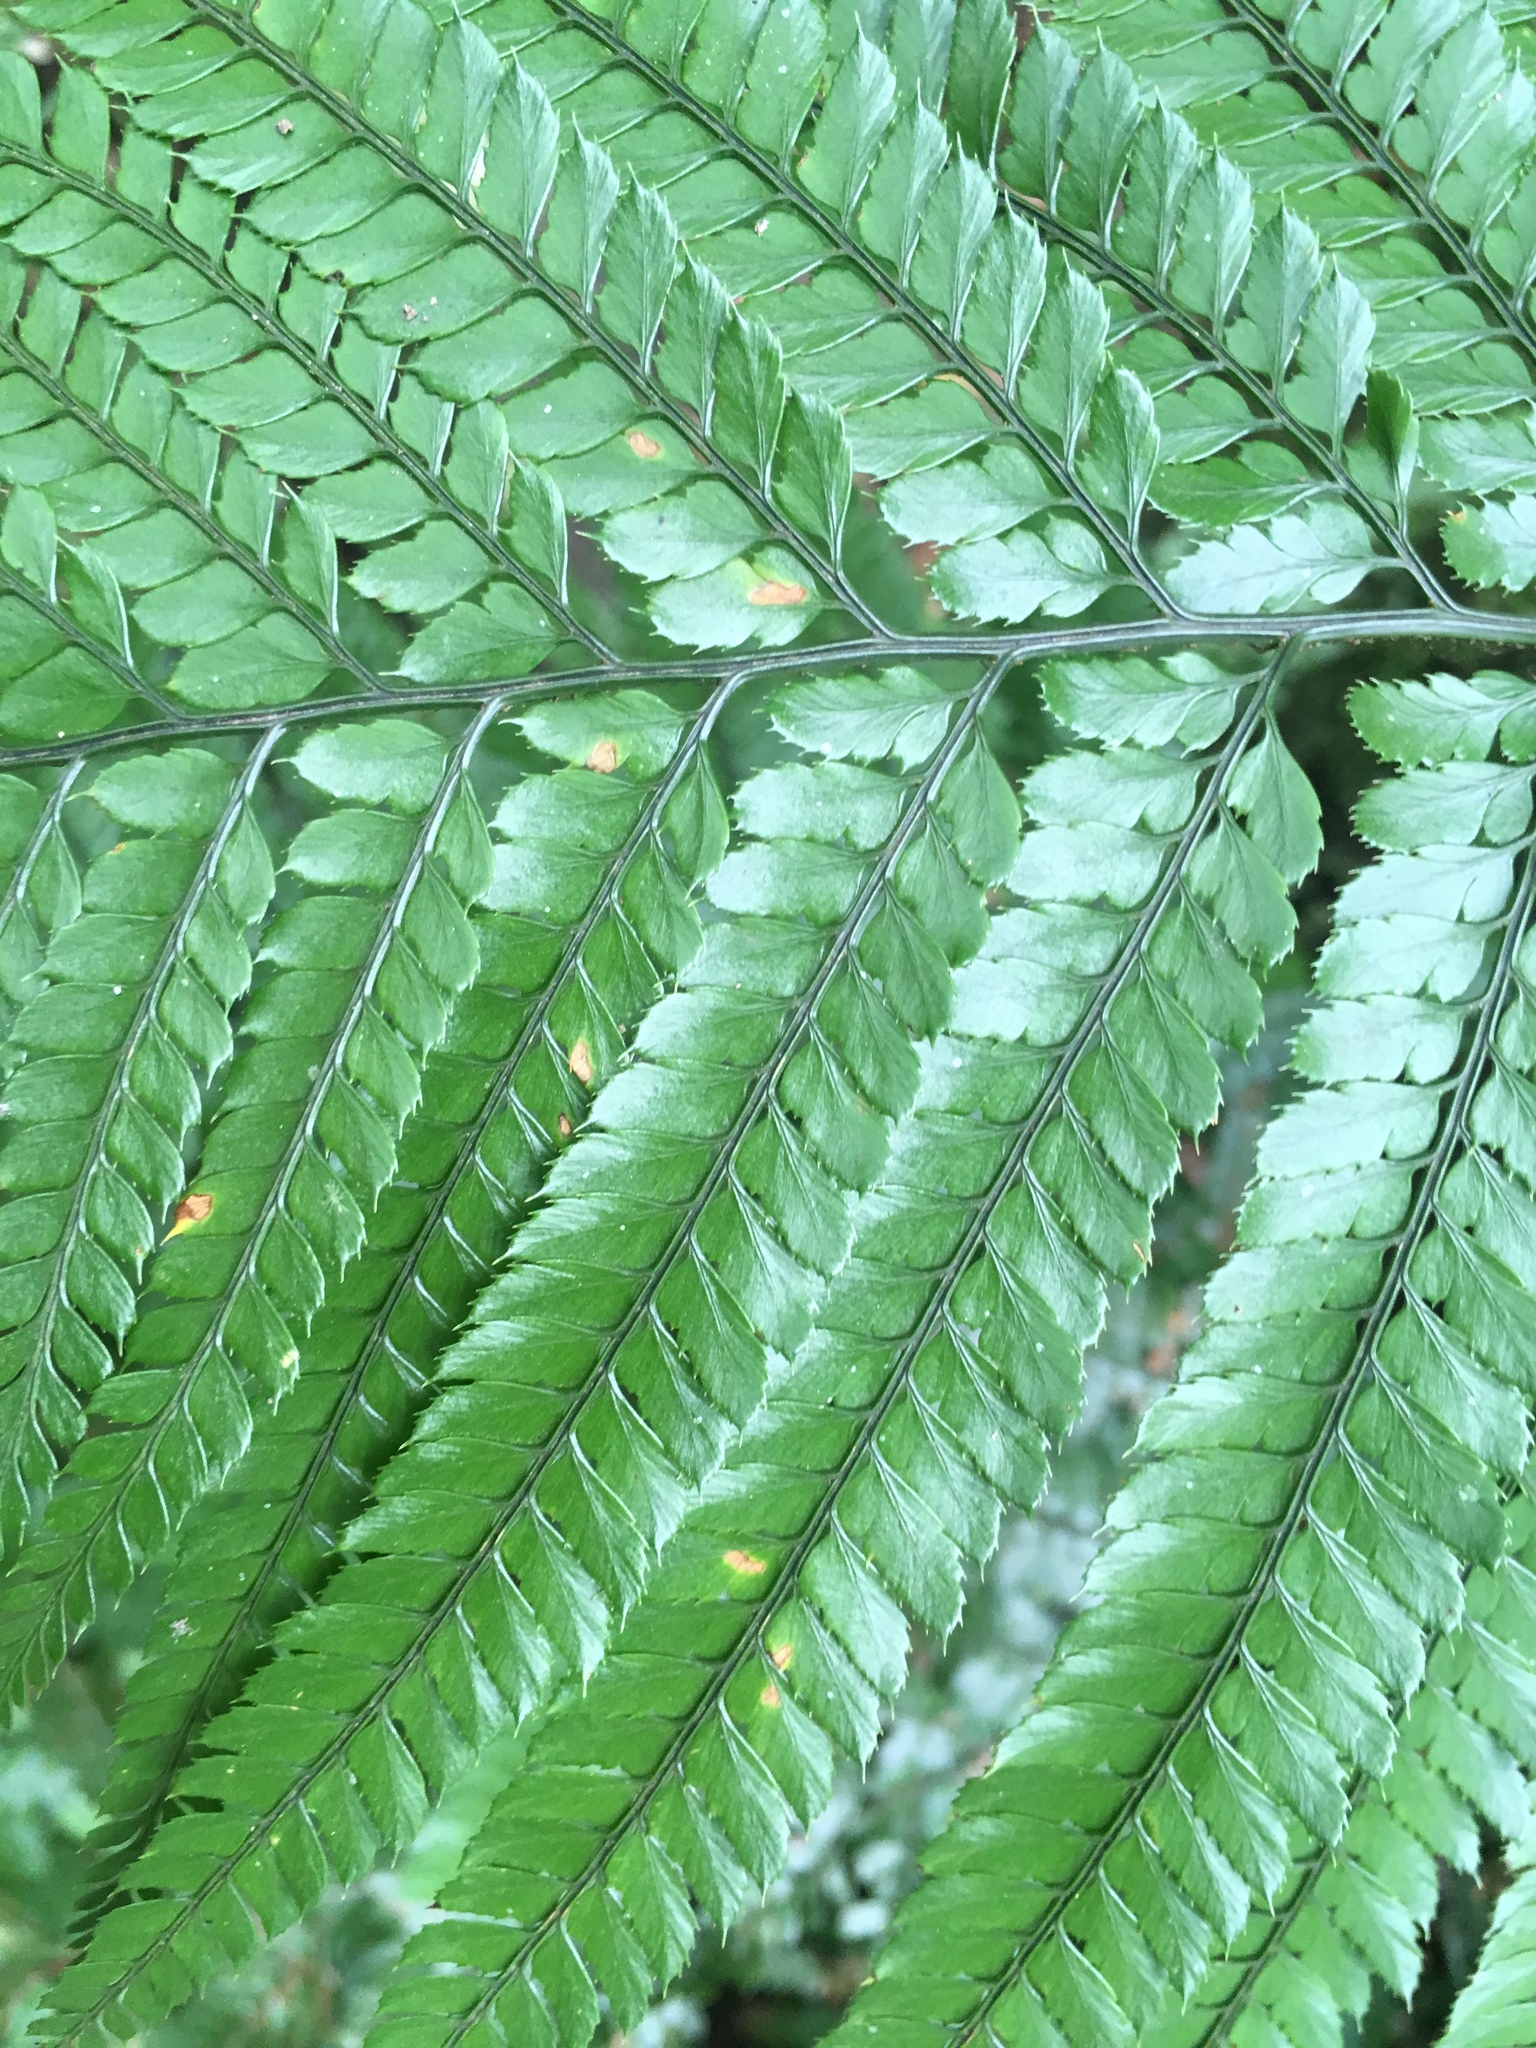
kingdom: Plantae
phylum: Tracheophyta
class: Polypodiopsida
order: Polypodiales
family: Dryopteridaceae
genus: Arachniodes
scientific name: Arachniodes pseudoaristata
